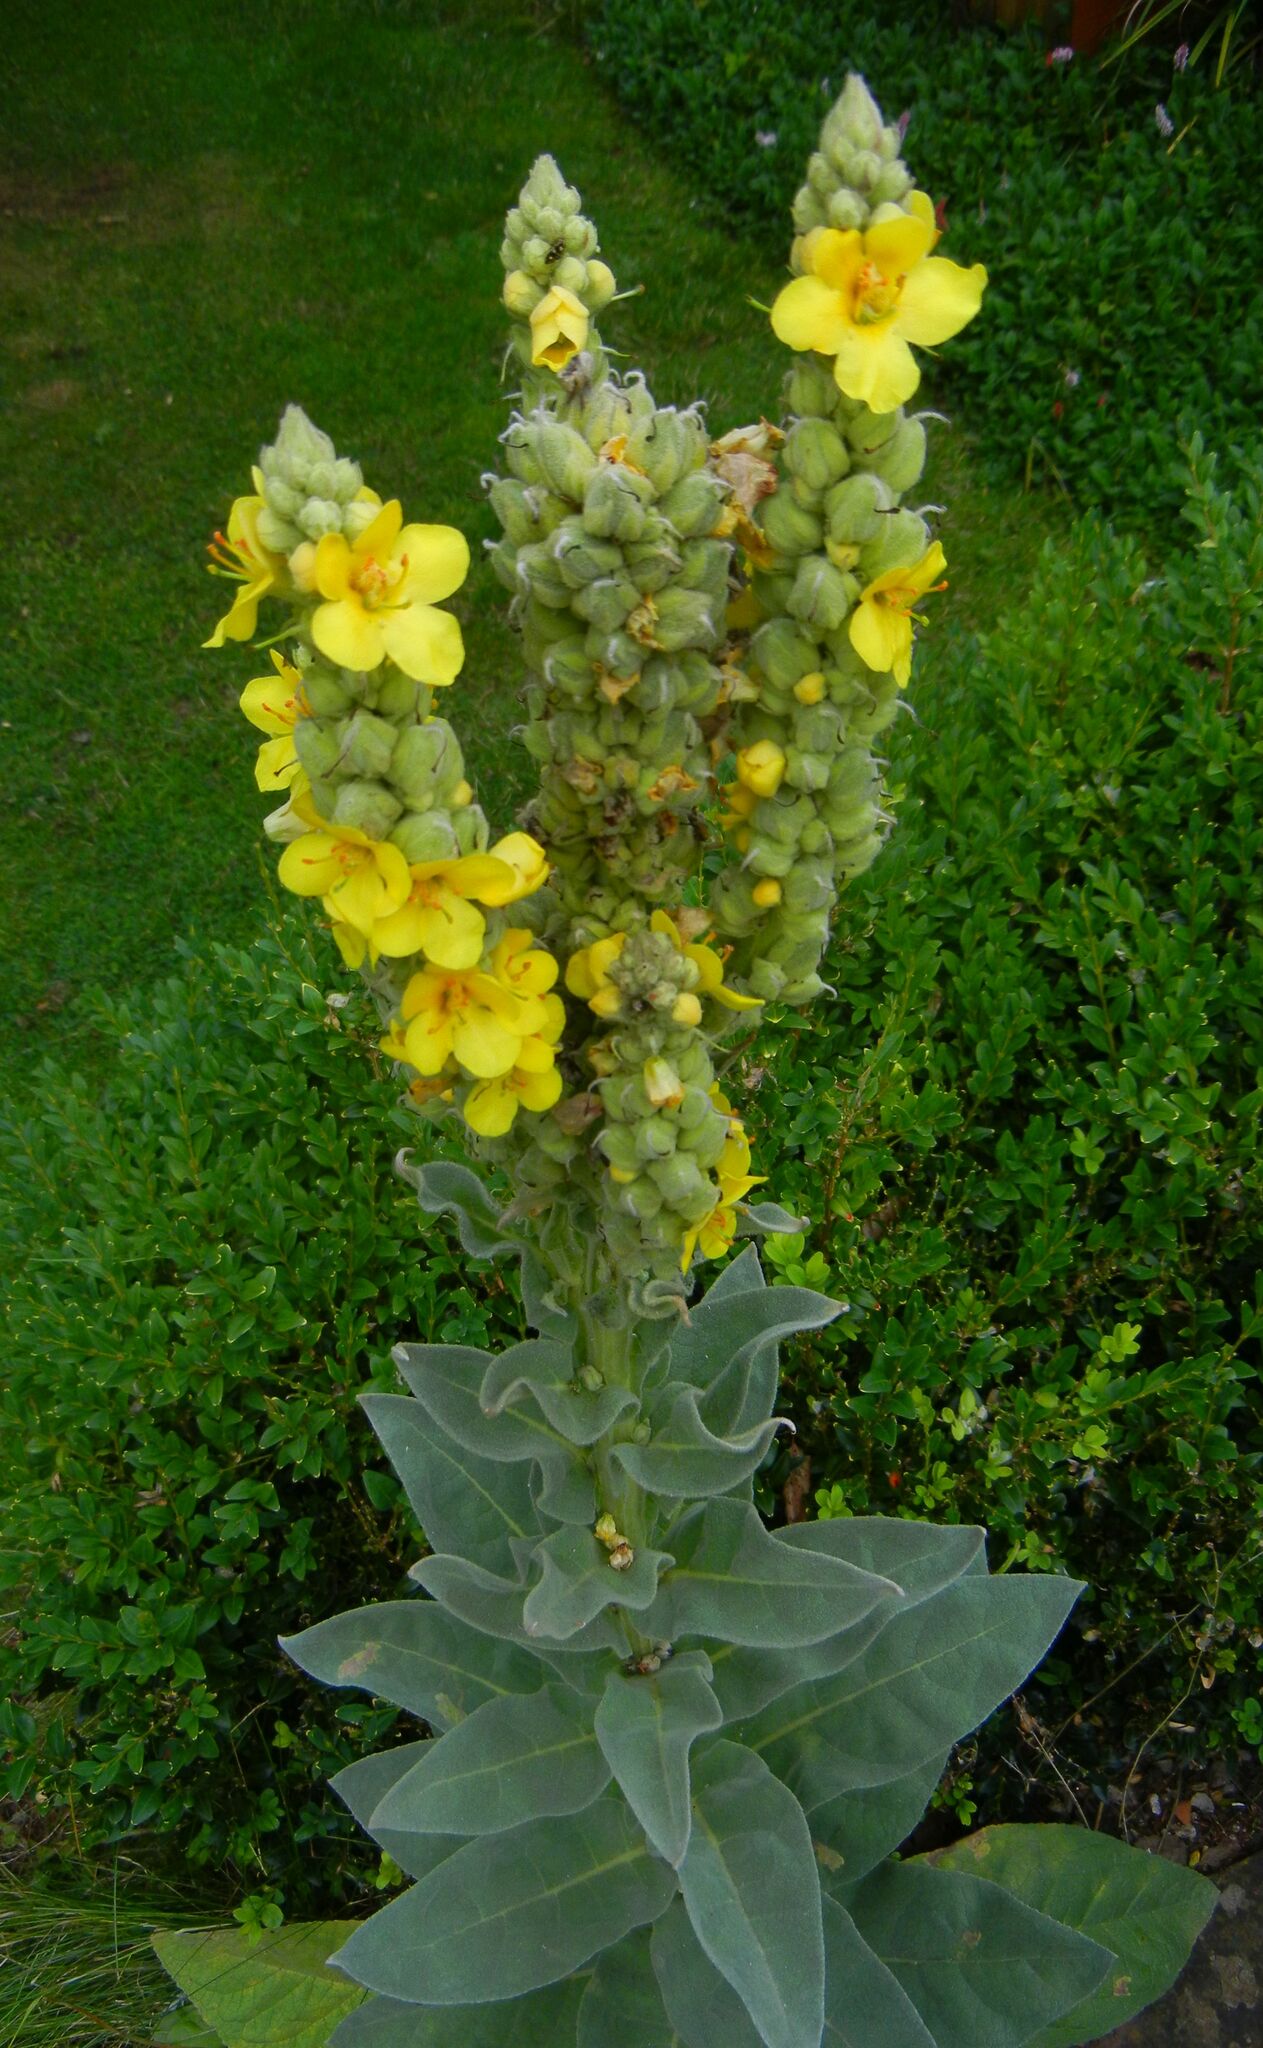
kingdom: Plantae
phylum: Tracheophyta
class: Magnoliopsida
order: Lamiales
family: Scrophulariaceae
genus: Verbascum
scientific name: Verbascum thapsus
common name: Common mullein
